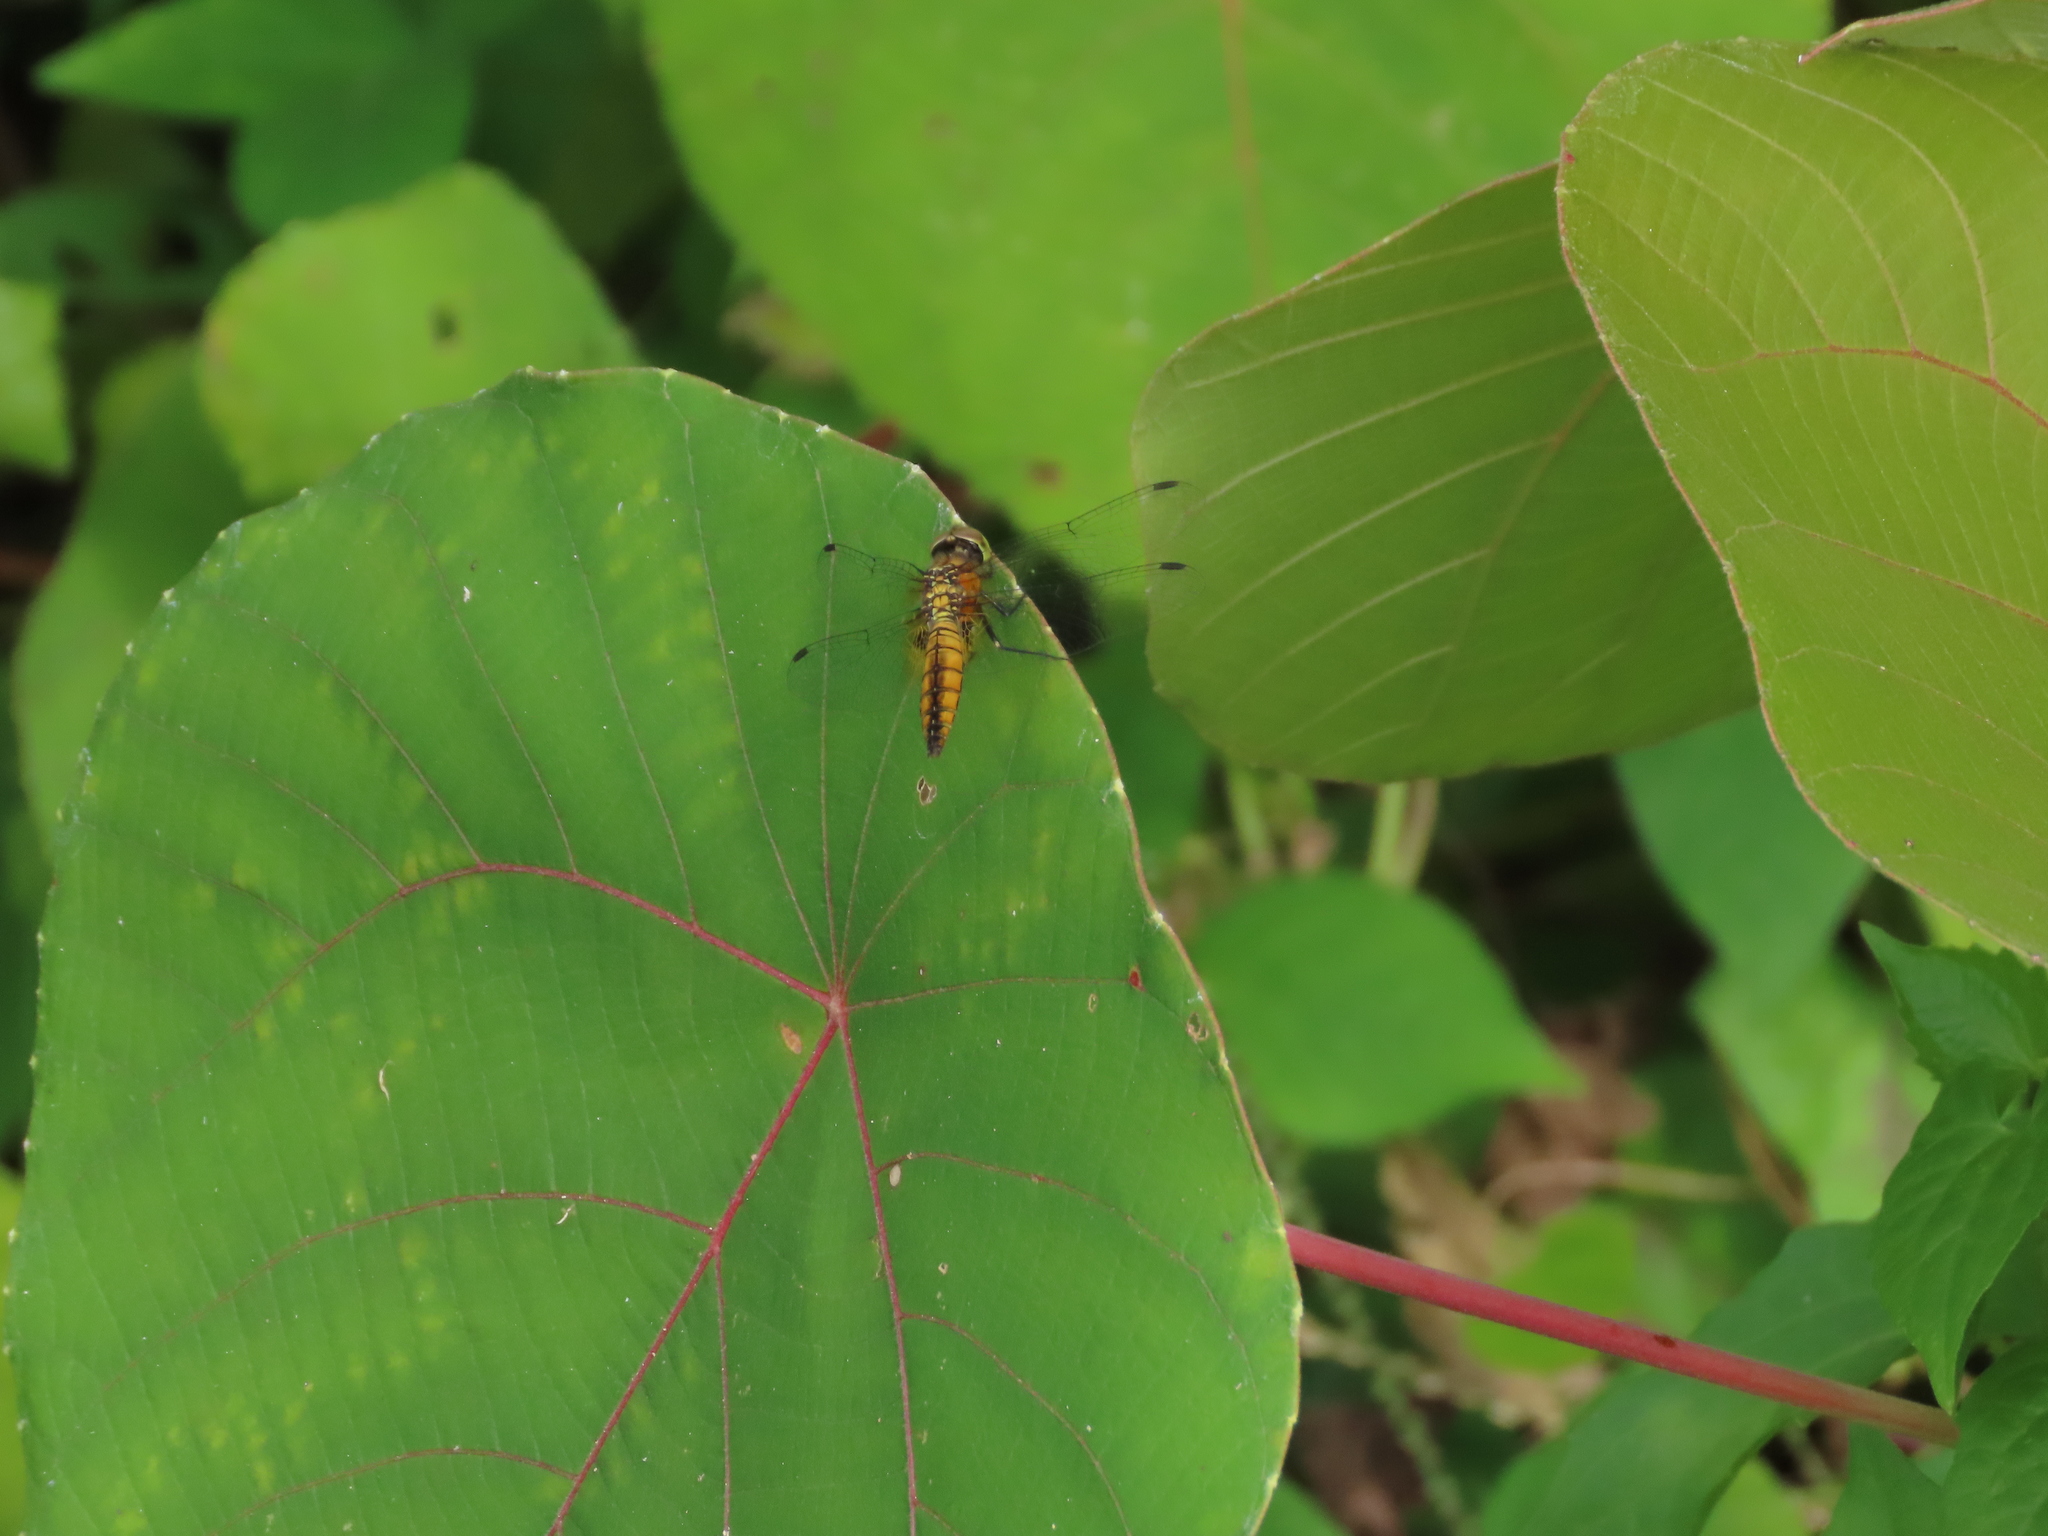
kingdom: Animalia
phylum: Arthropoda
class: Insecta
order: Odonata
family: Libellulidae
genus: Aethriamanta
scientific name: Aethriamanta brevipennis
